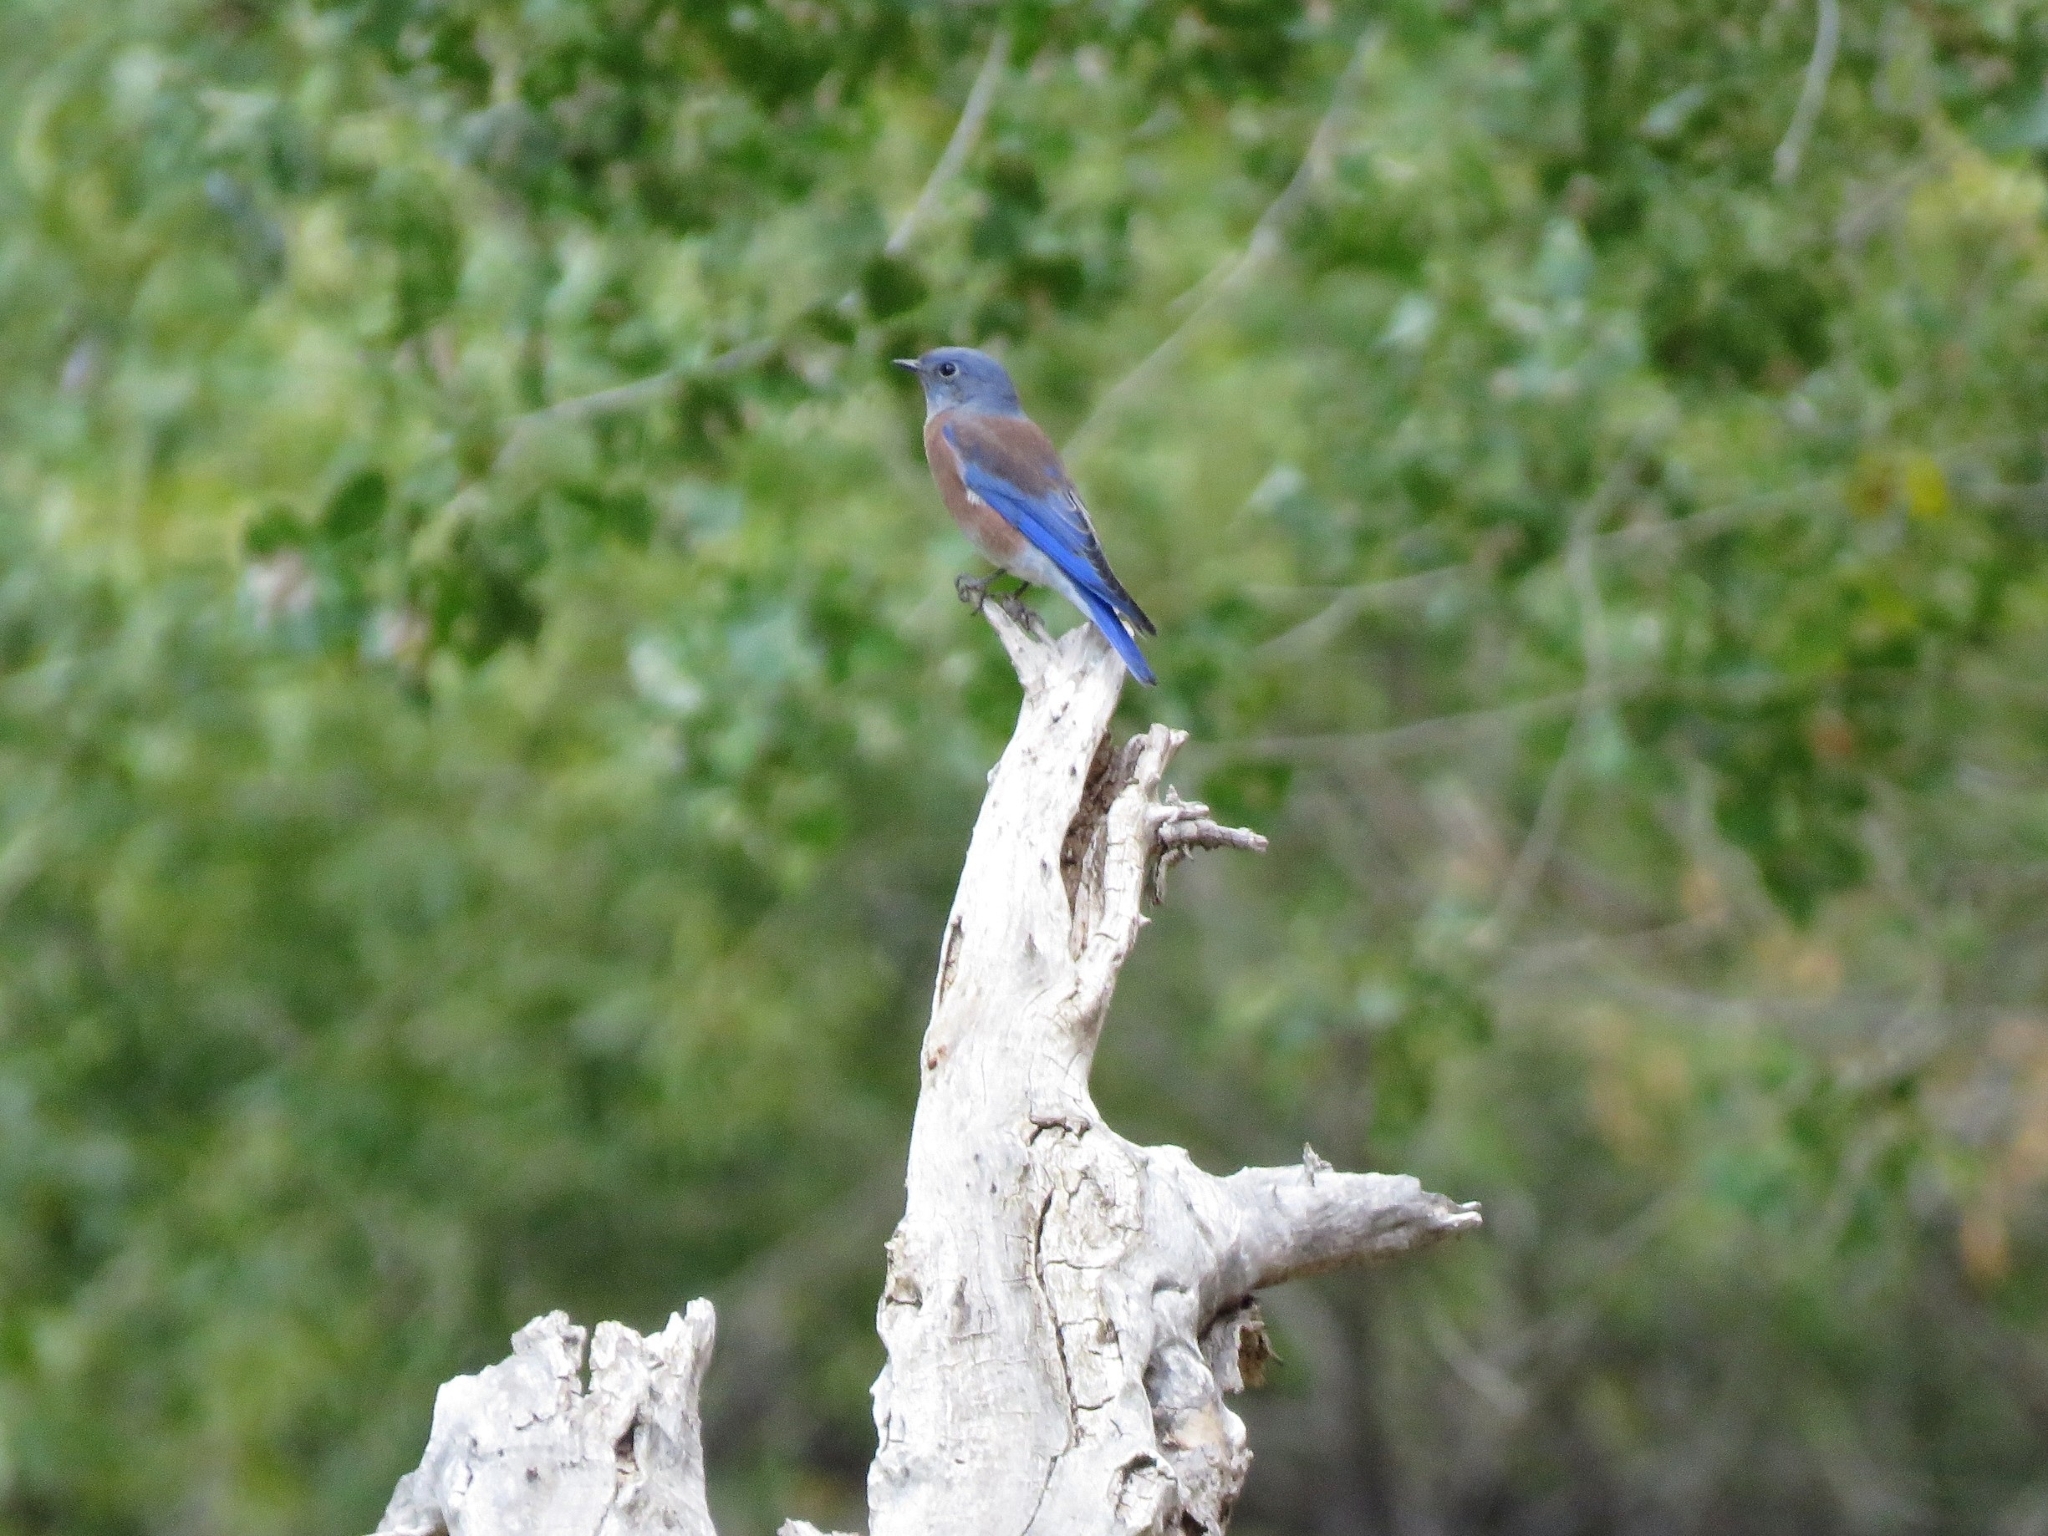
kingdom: Animalia
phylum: Chordata
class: Aves
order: Passeriformes
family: Turdidae
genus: Sialia
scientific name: Sialia mexicana
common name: Western bluebird
